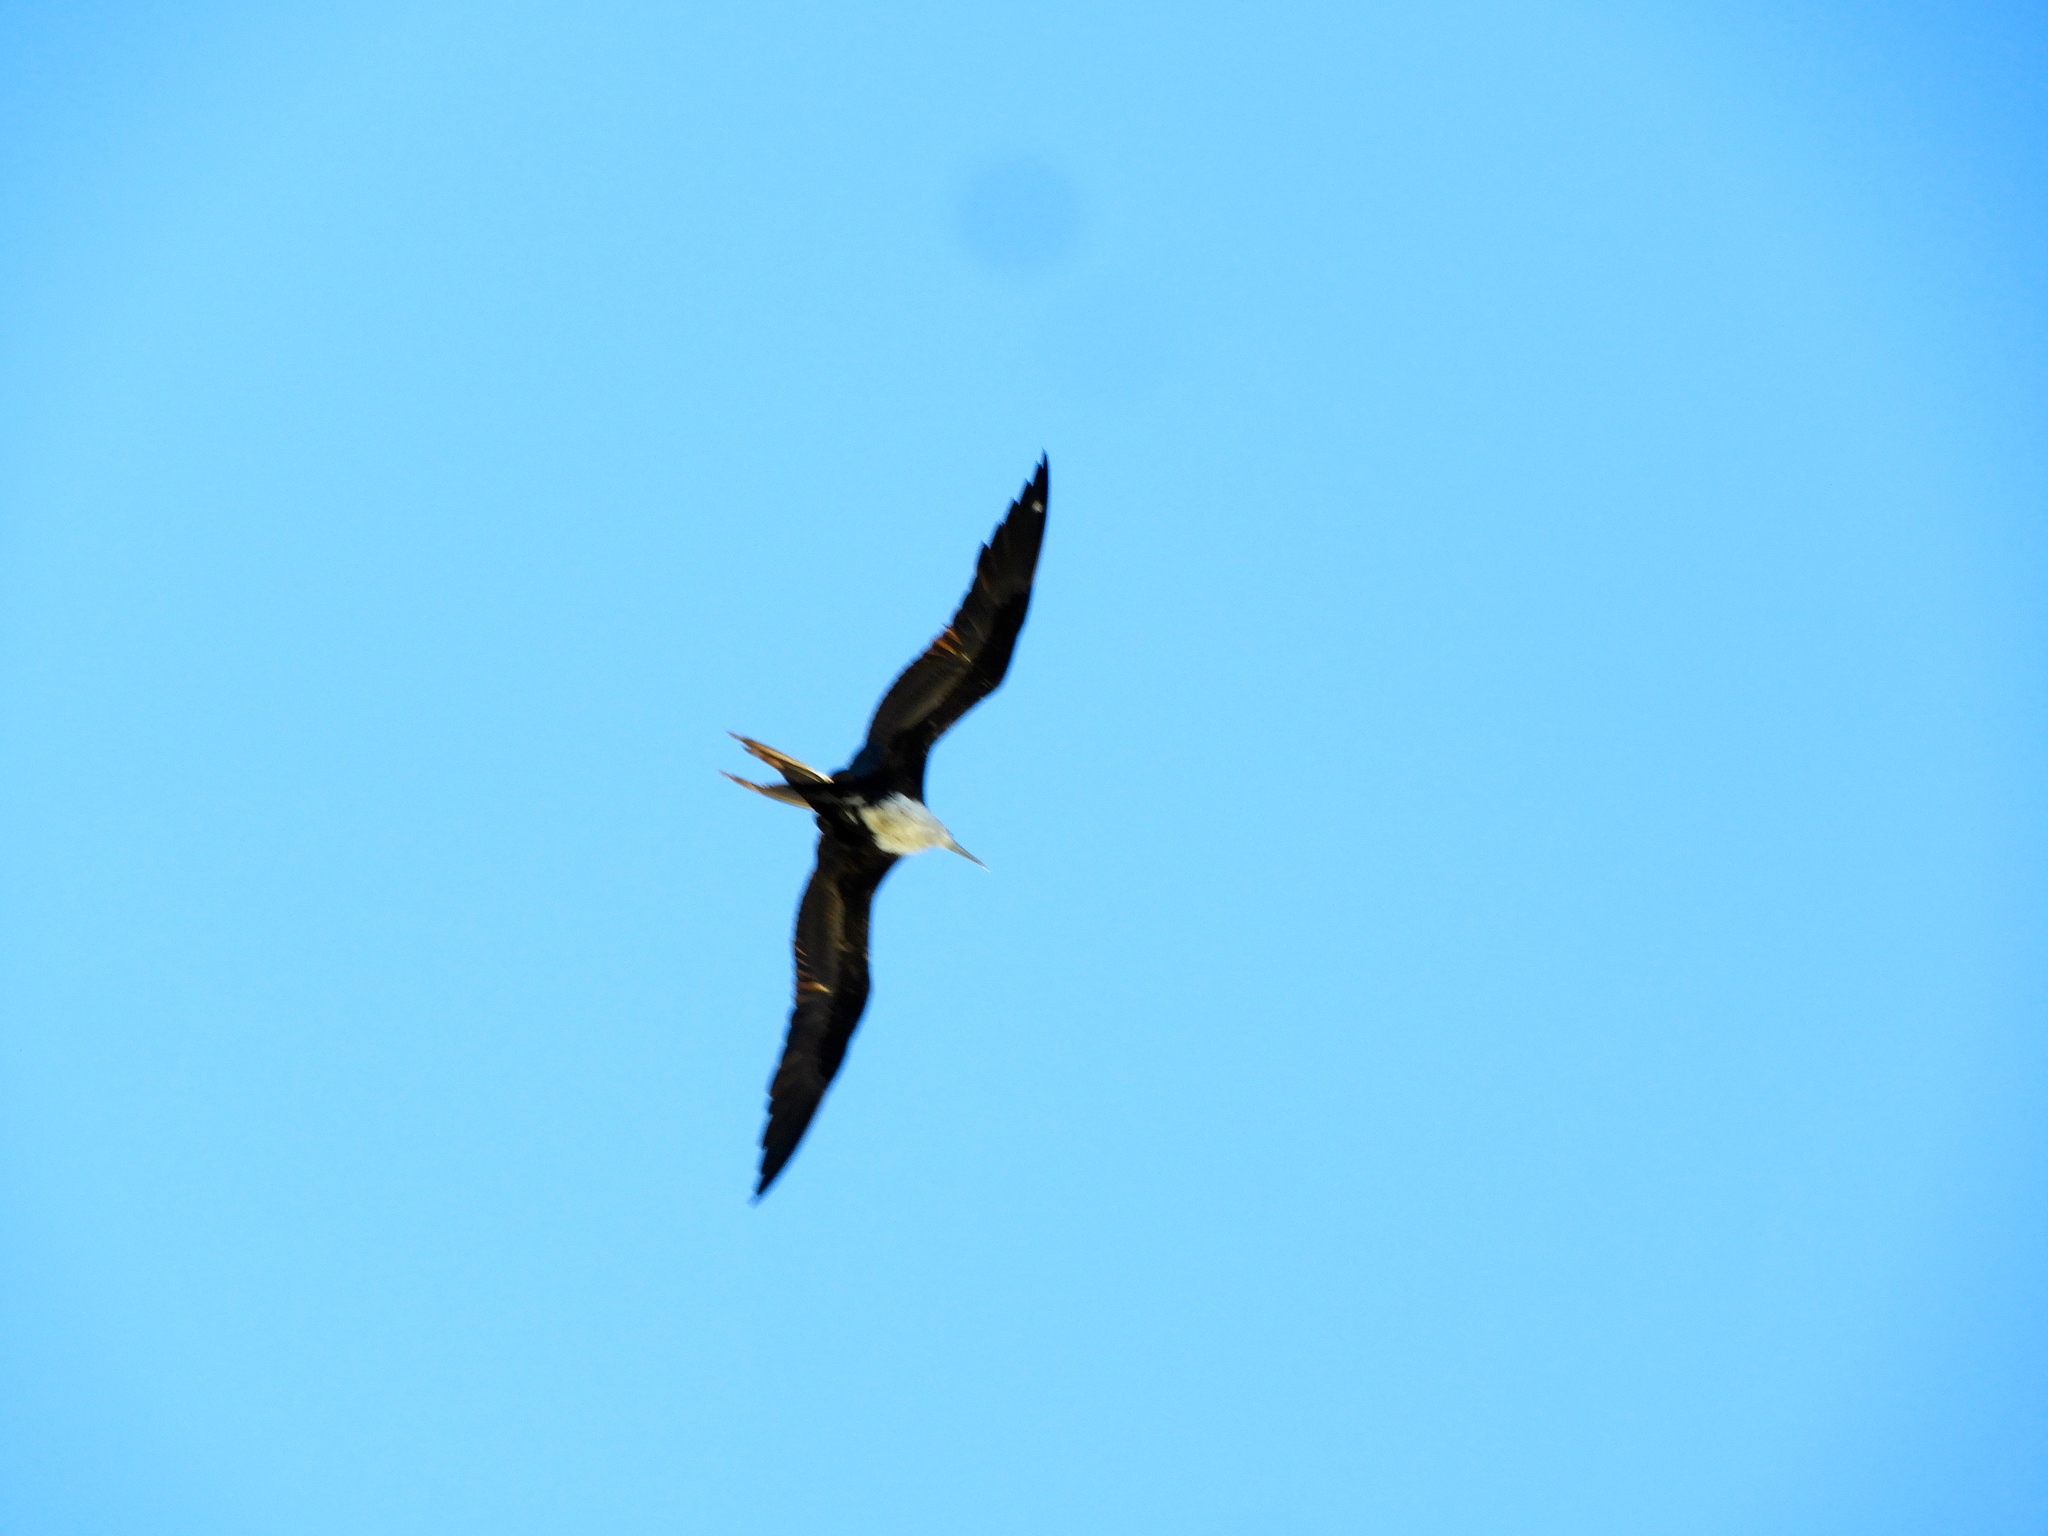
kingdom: Animalia
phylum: Chordata
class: Aves
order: Suliformes
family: Fregatidae
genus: Fregata
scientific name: Fregata magnificens
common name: Magnificent frigatebird
